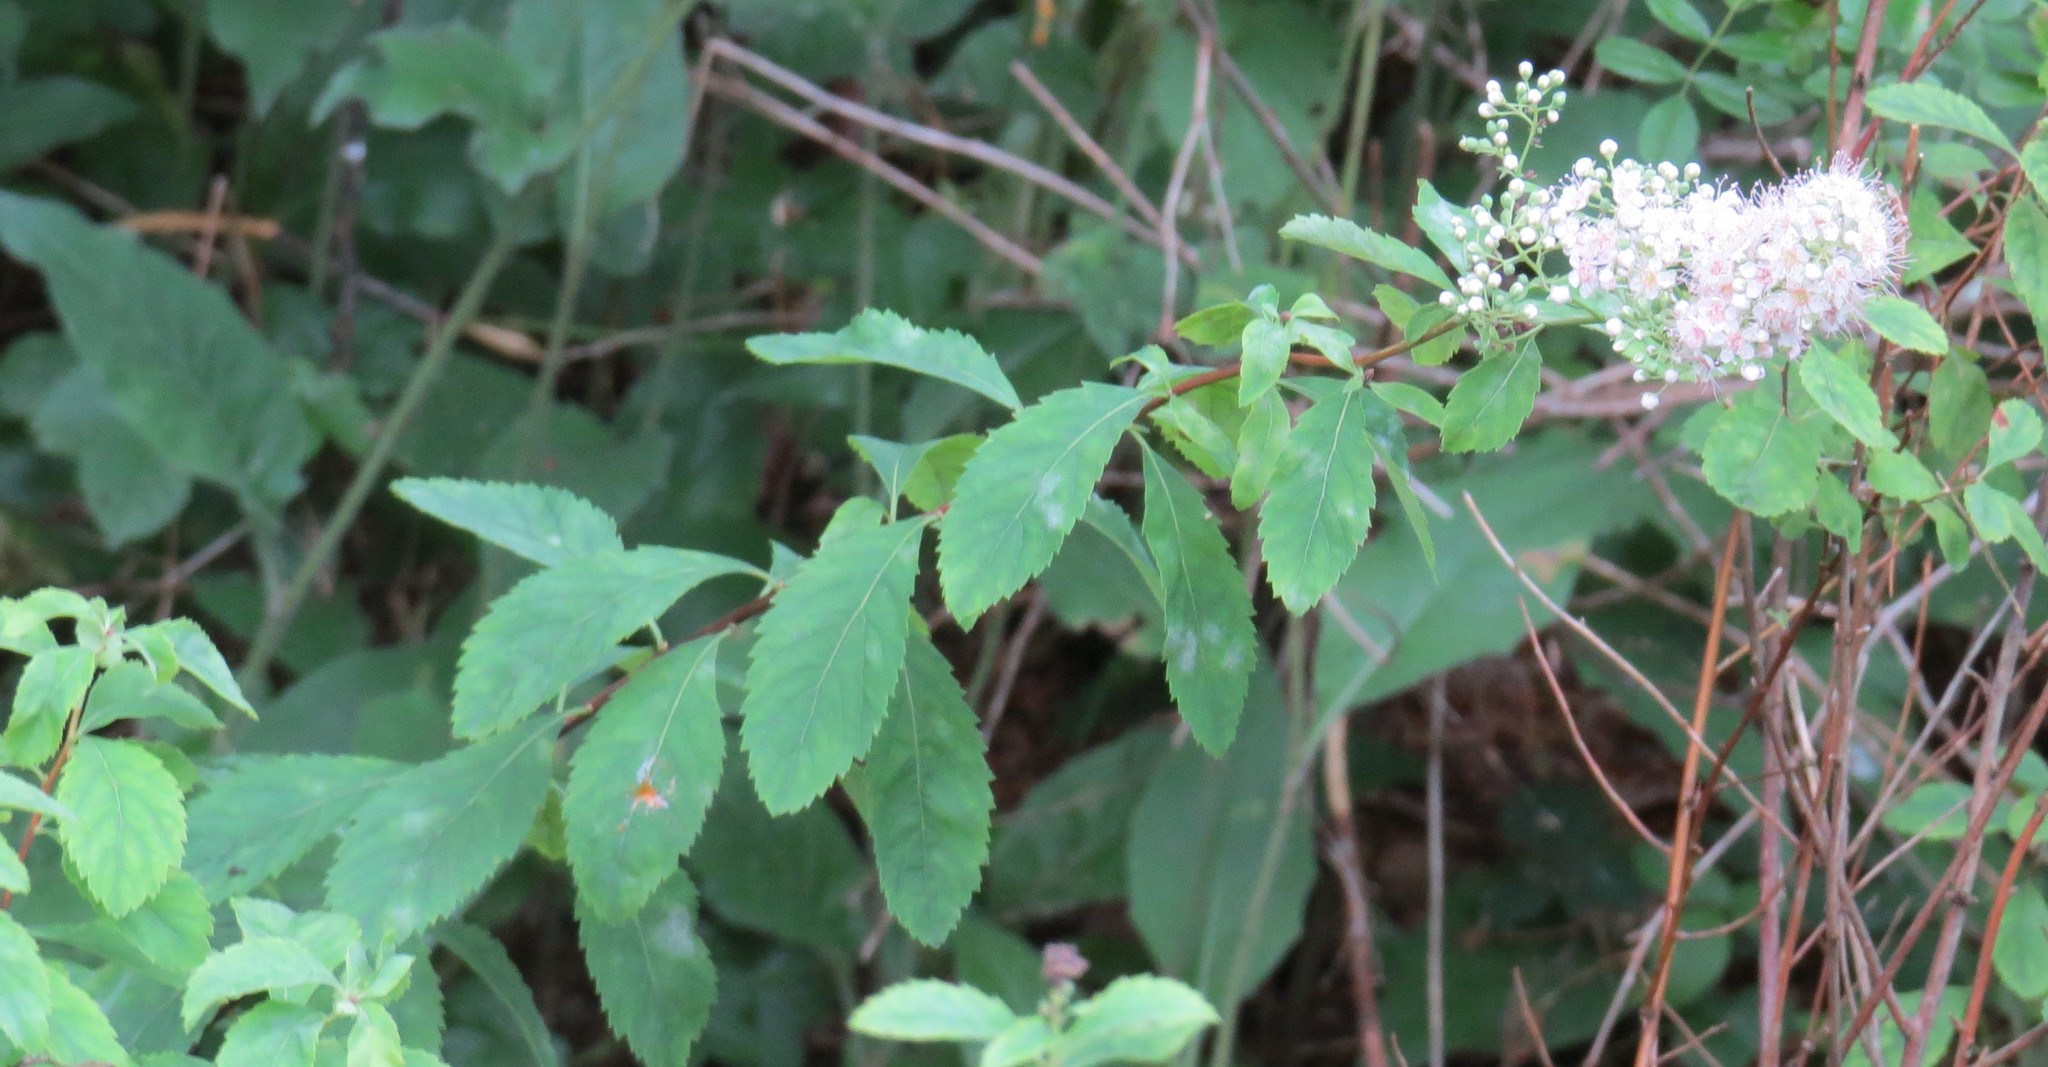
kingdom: Plantae
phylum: Tracheophyta
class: Magnoliopsida
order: Rosales
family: Rosaceae
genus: Spiraea
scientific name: Spiraea alba
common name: Pale bridewort
